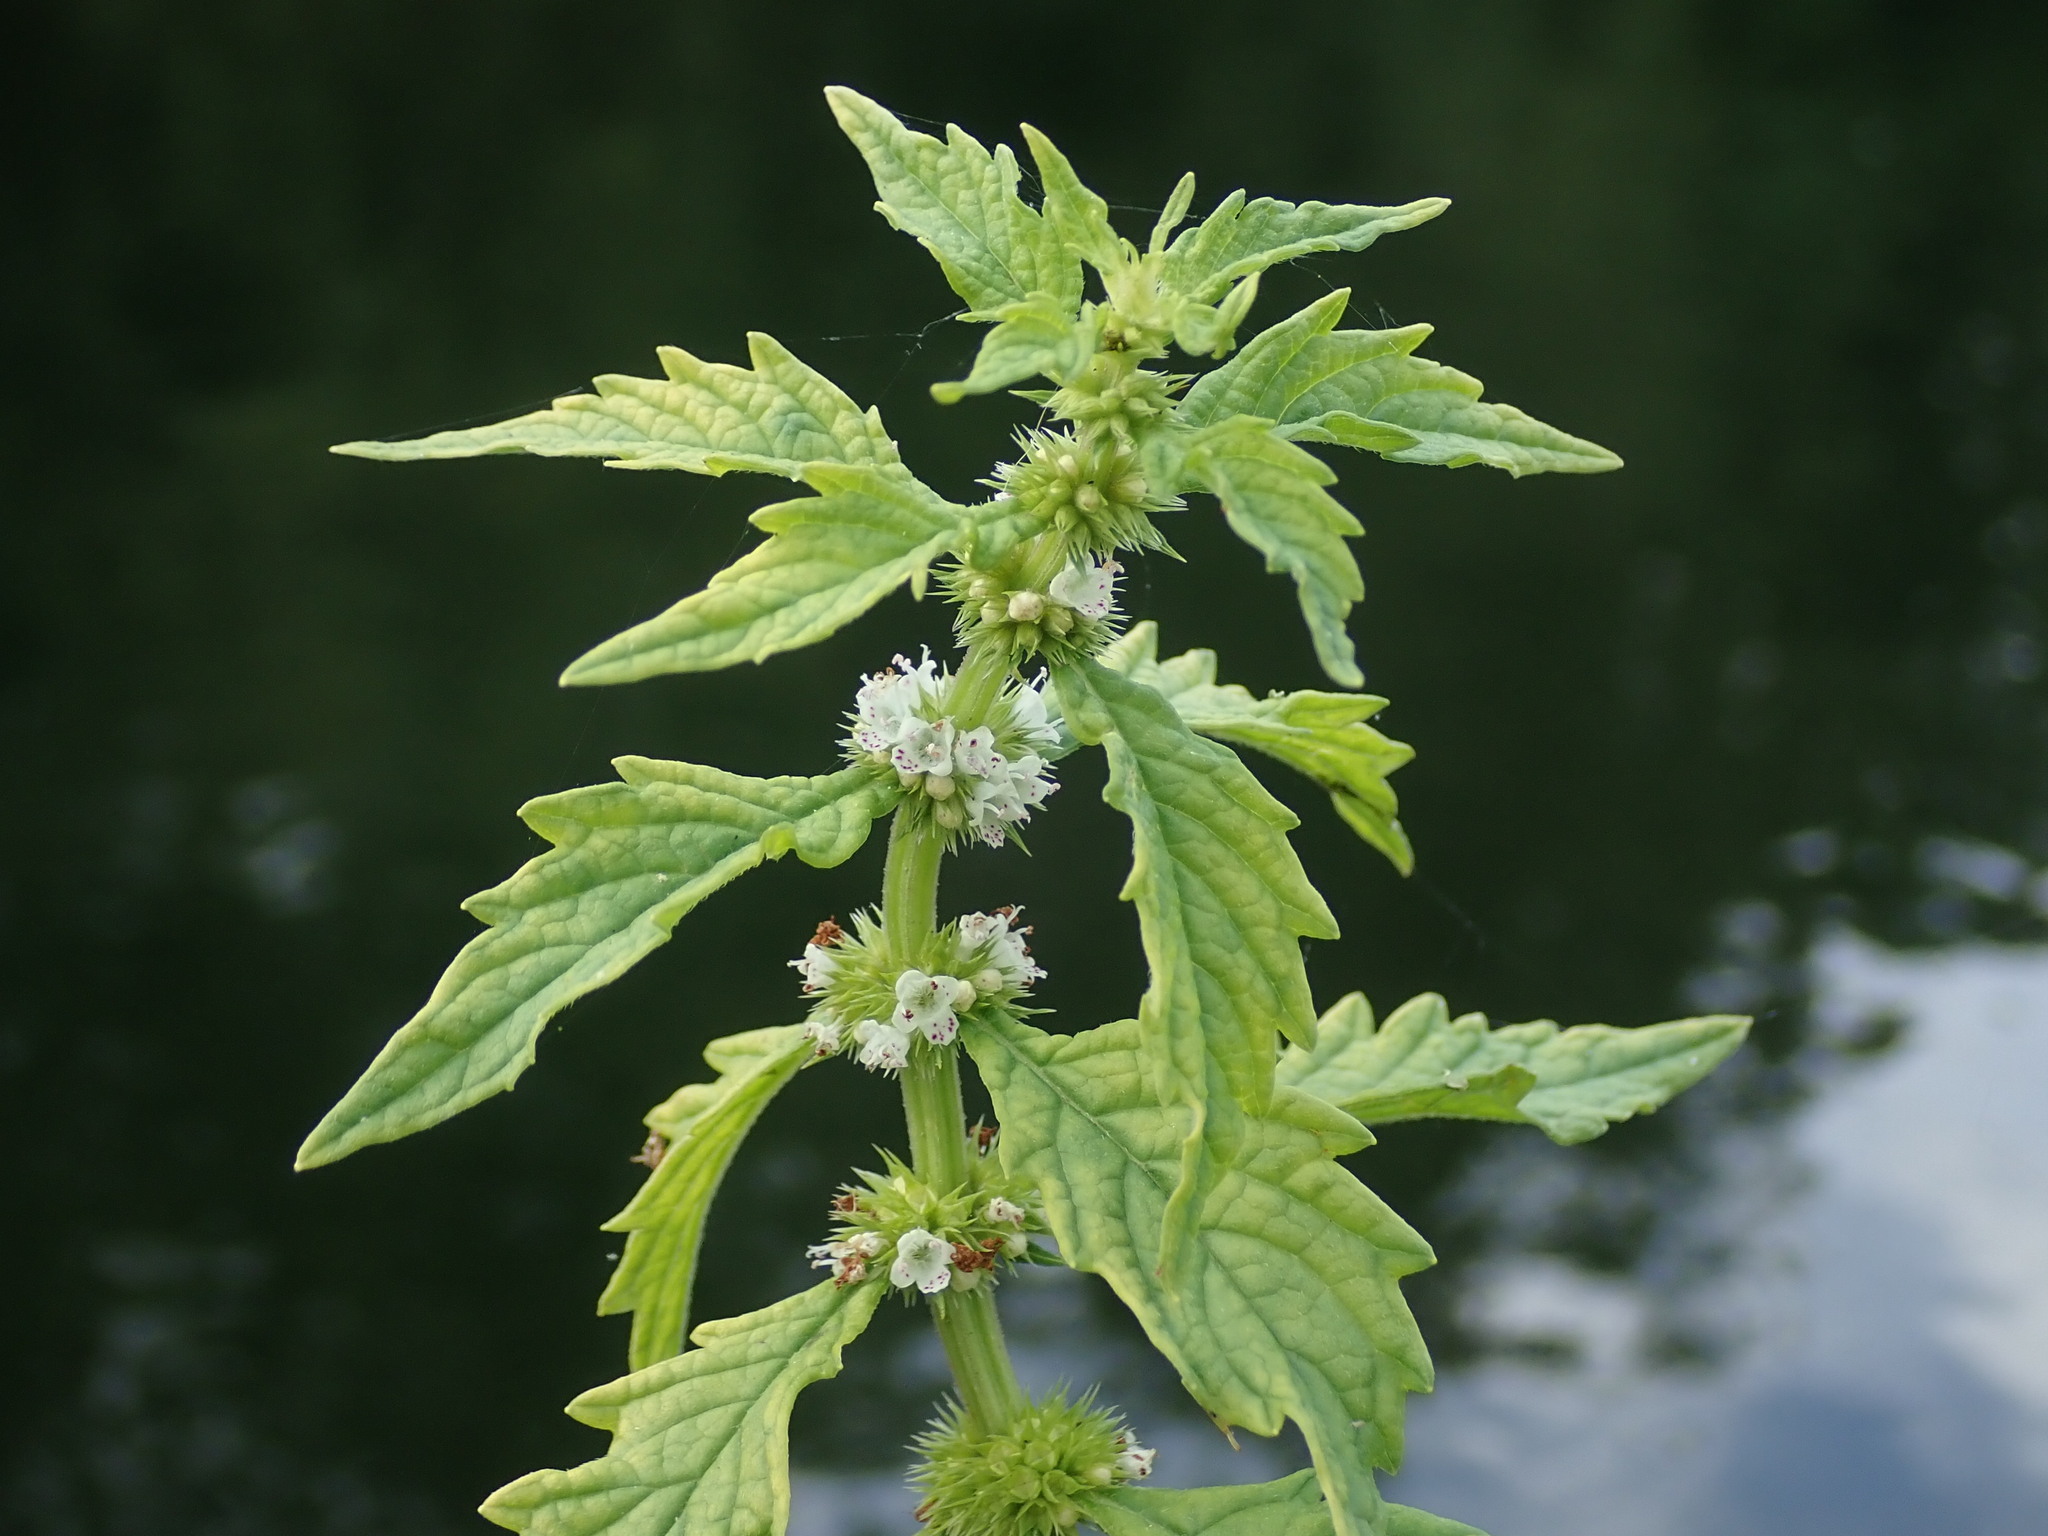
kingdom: Plantae
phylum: Tracheophyta
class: Magnoliopsida
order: Lamiales
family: Lamiaceae
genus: Lycopus
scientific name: Lycopus europaeus
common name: European bugleweed
